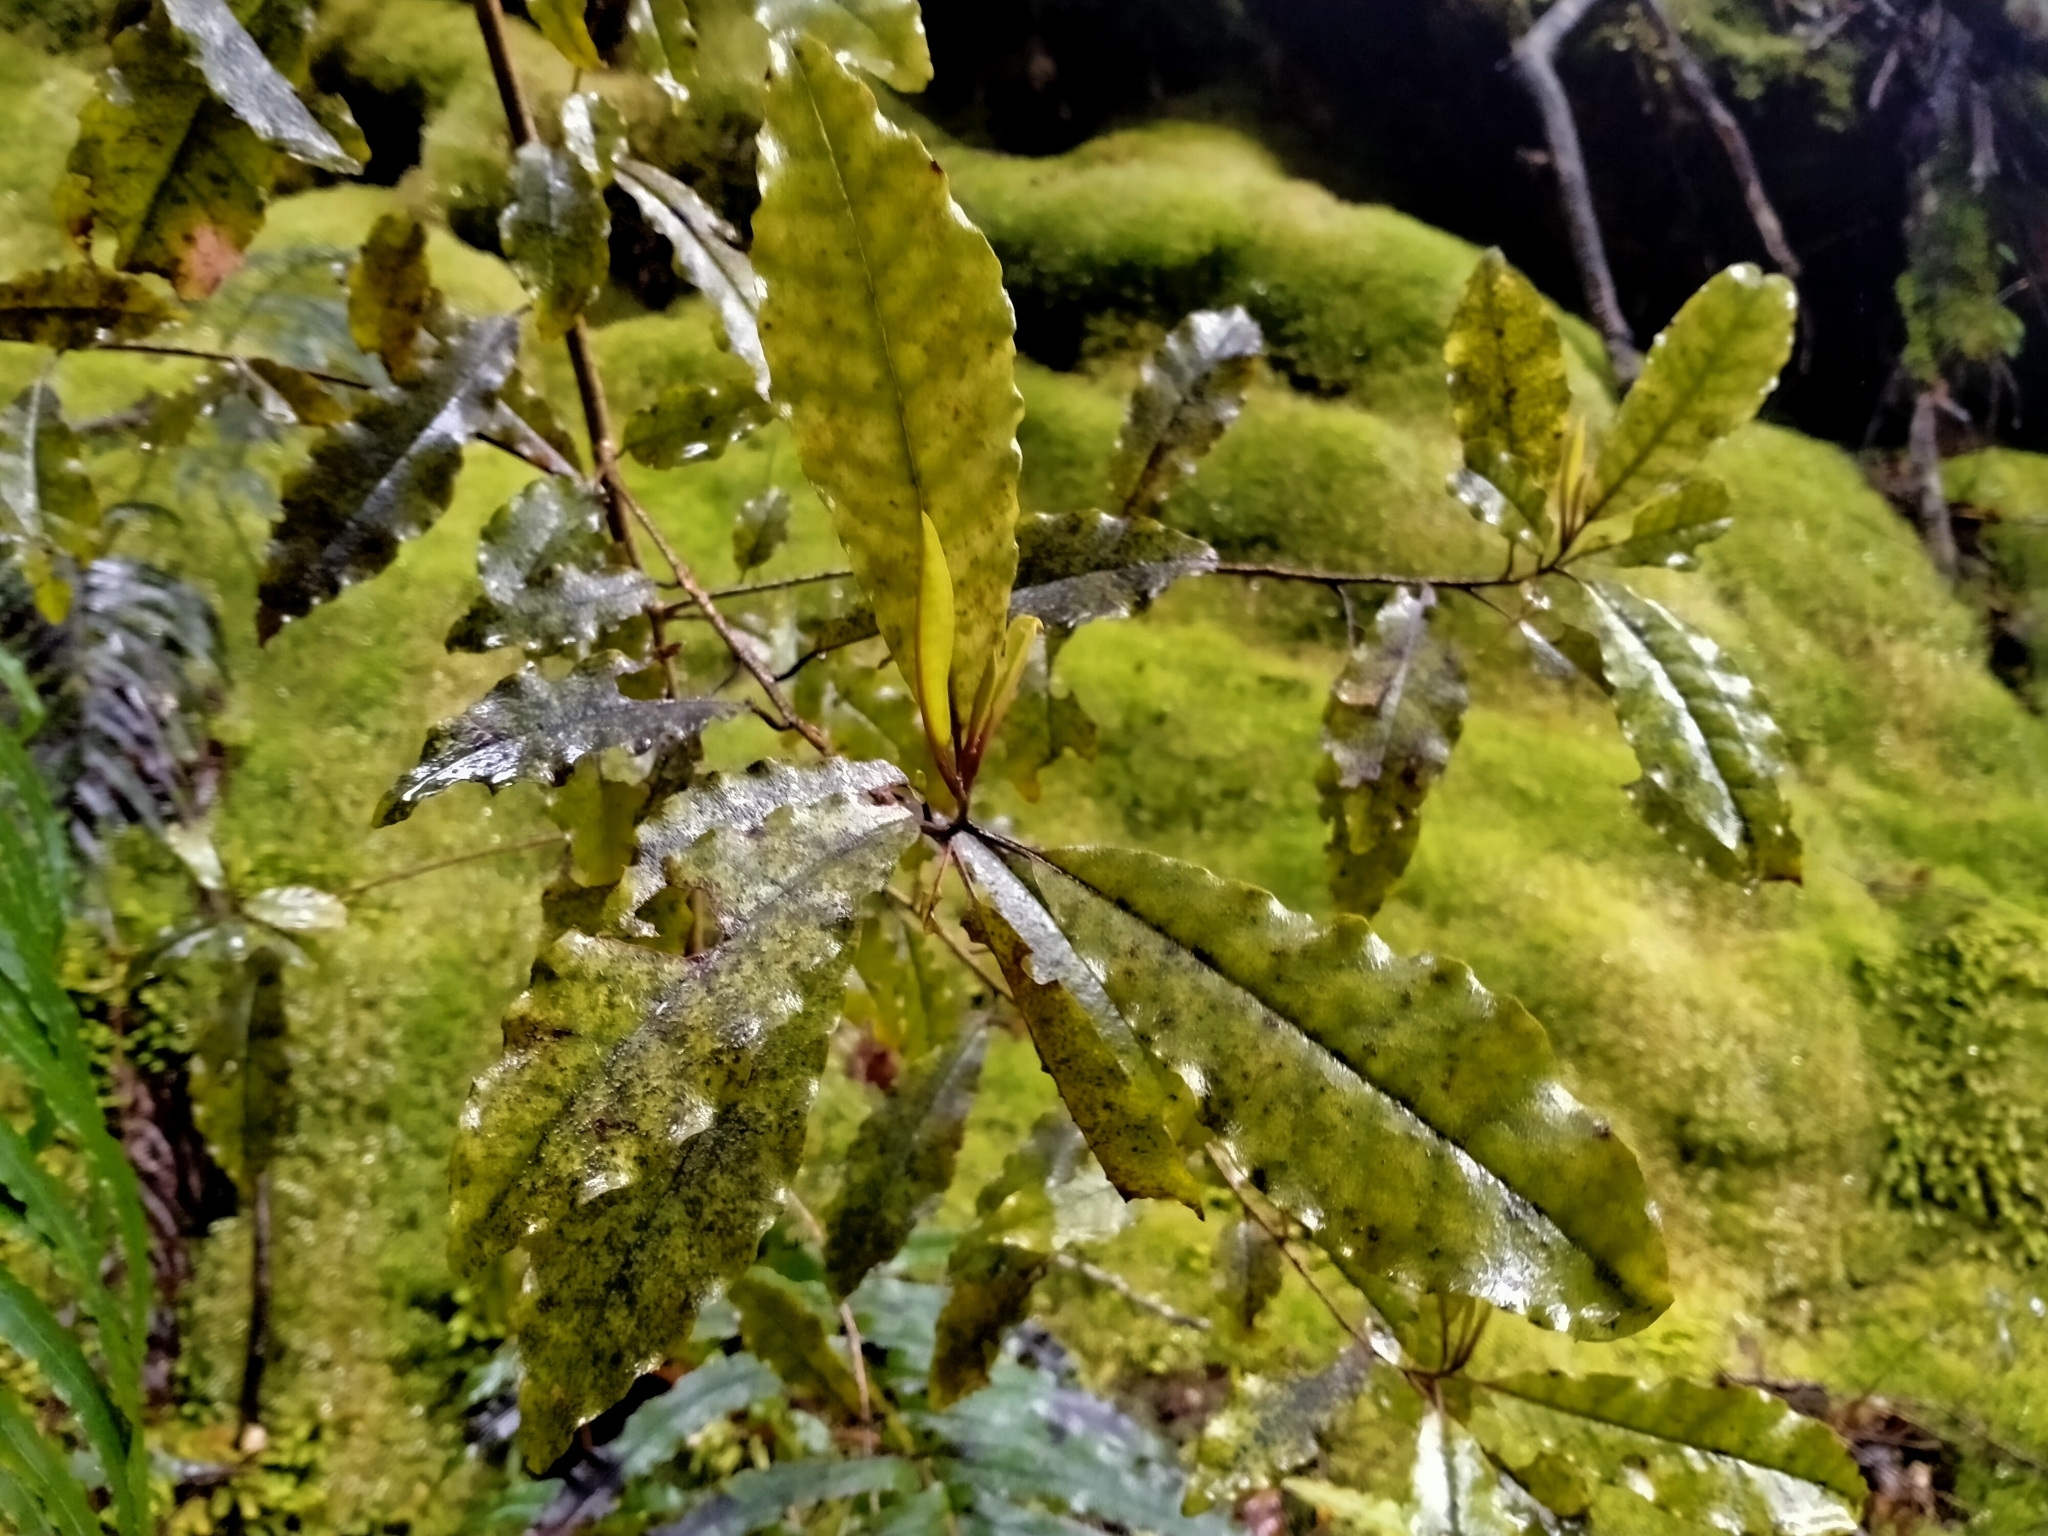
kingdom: Plantae
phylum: Tracheophyta
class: Magnoliopsida
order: Paracryphiales
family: Paracryphiaceae
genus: Quintinia
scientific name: Quintinia serrata
